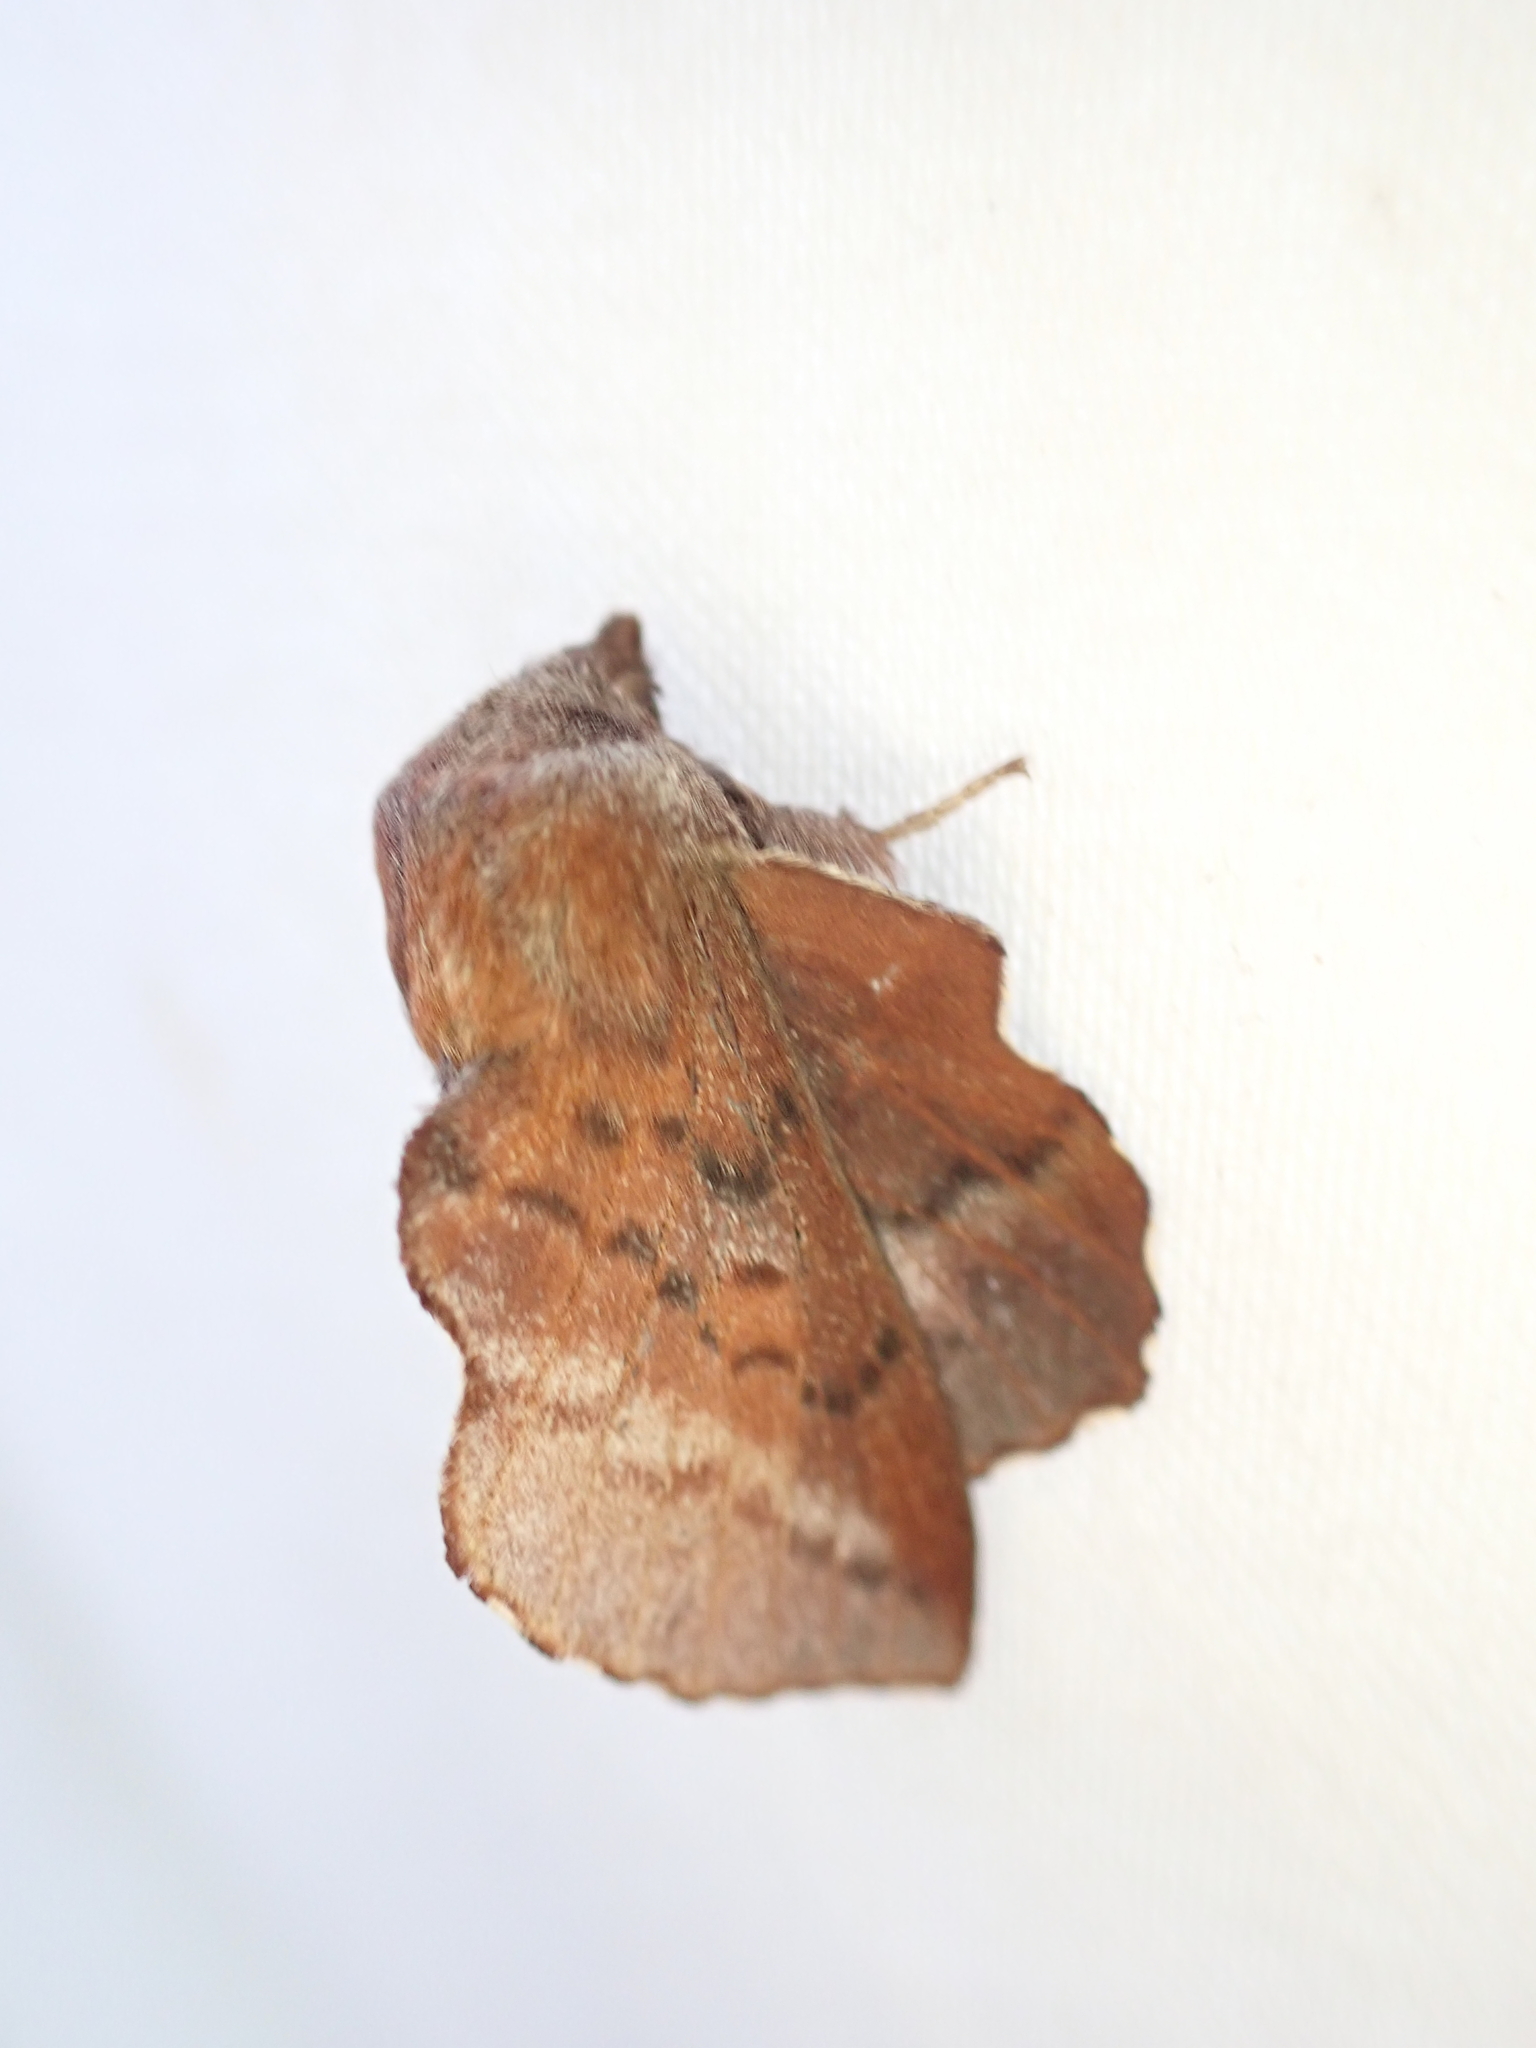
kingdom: Animalia
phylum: Arthropoda
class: Insecta
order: Lepidoptera
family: Lasiocampidae
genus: Phyllodesma
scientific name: Phyllodesma americana
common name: American lappet moth
